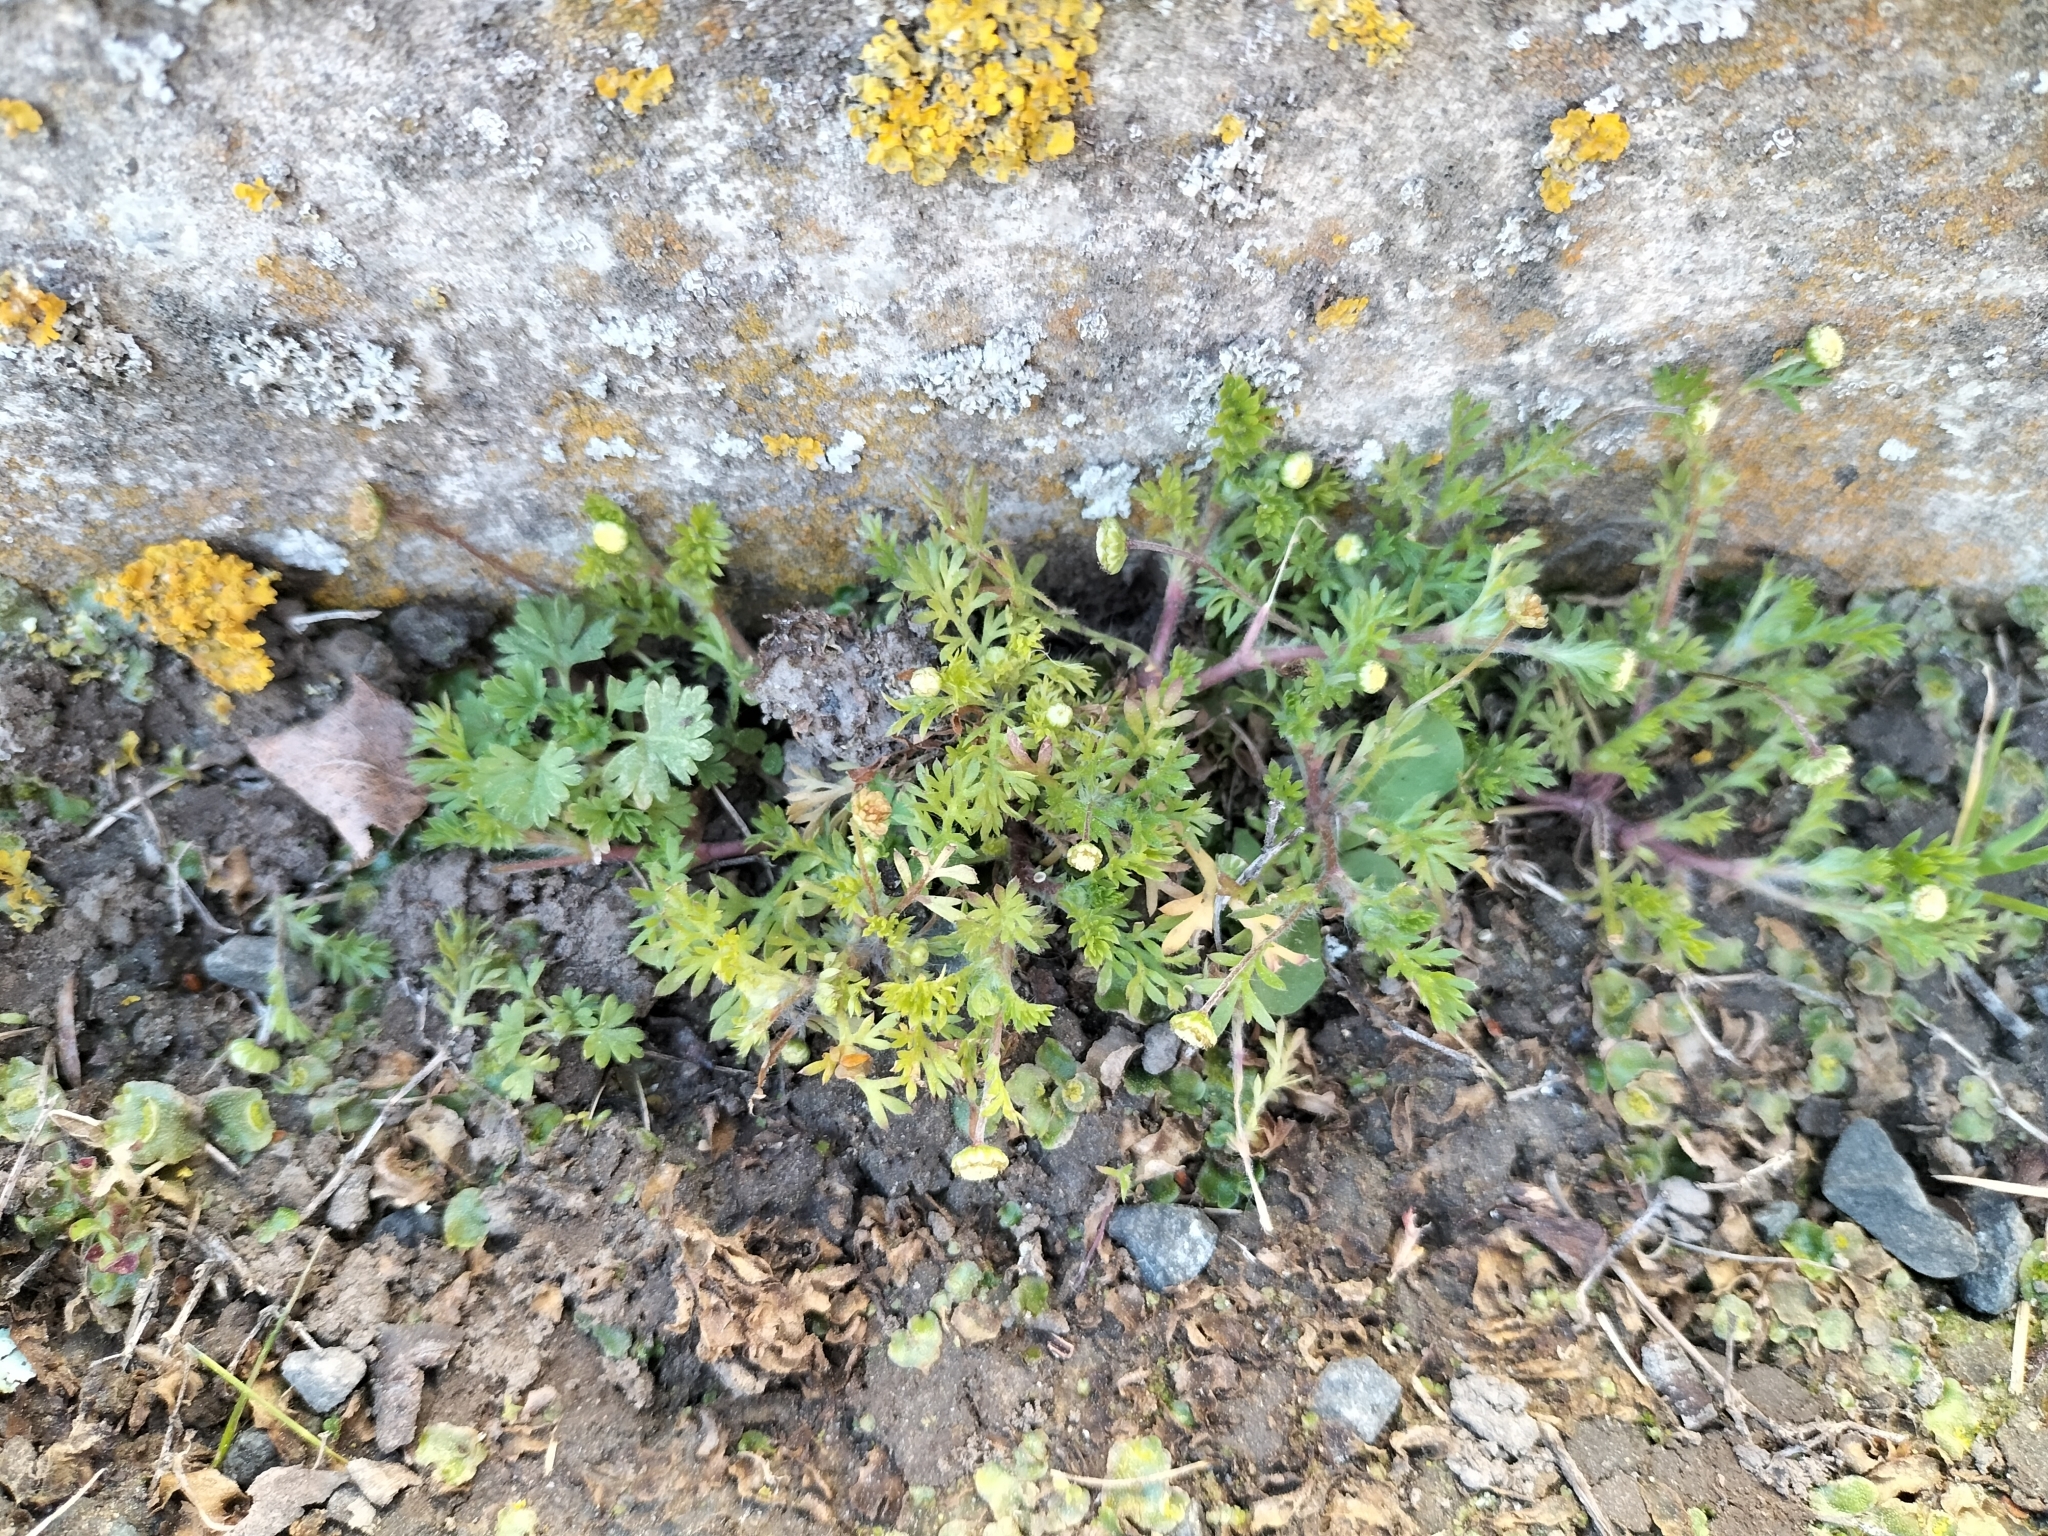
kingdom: Plantae
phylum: Tracheophyta
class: Magnoliopsida
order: Asterales
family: Asteraceae
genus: Cotula
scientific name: Cotula australis
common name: Australian waterbuttons
